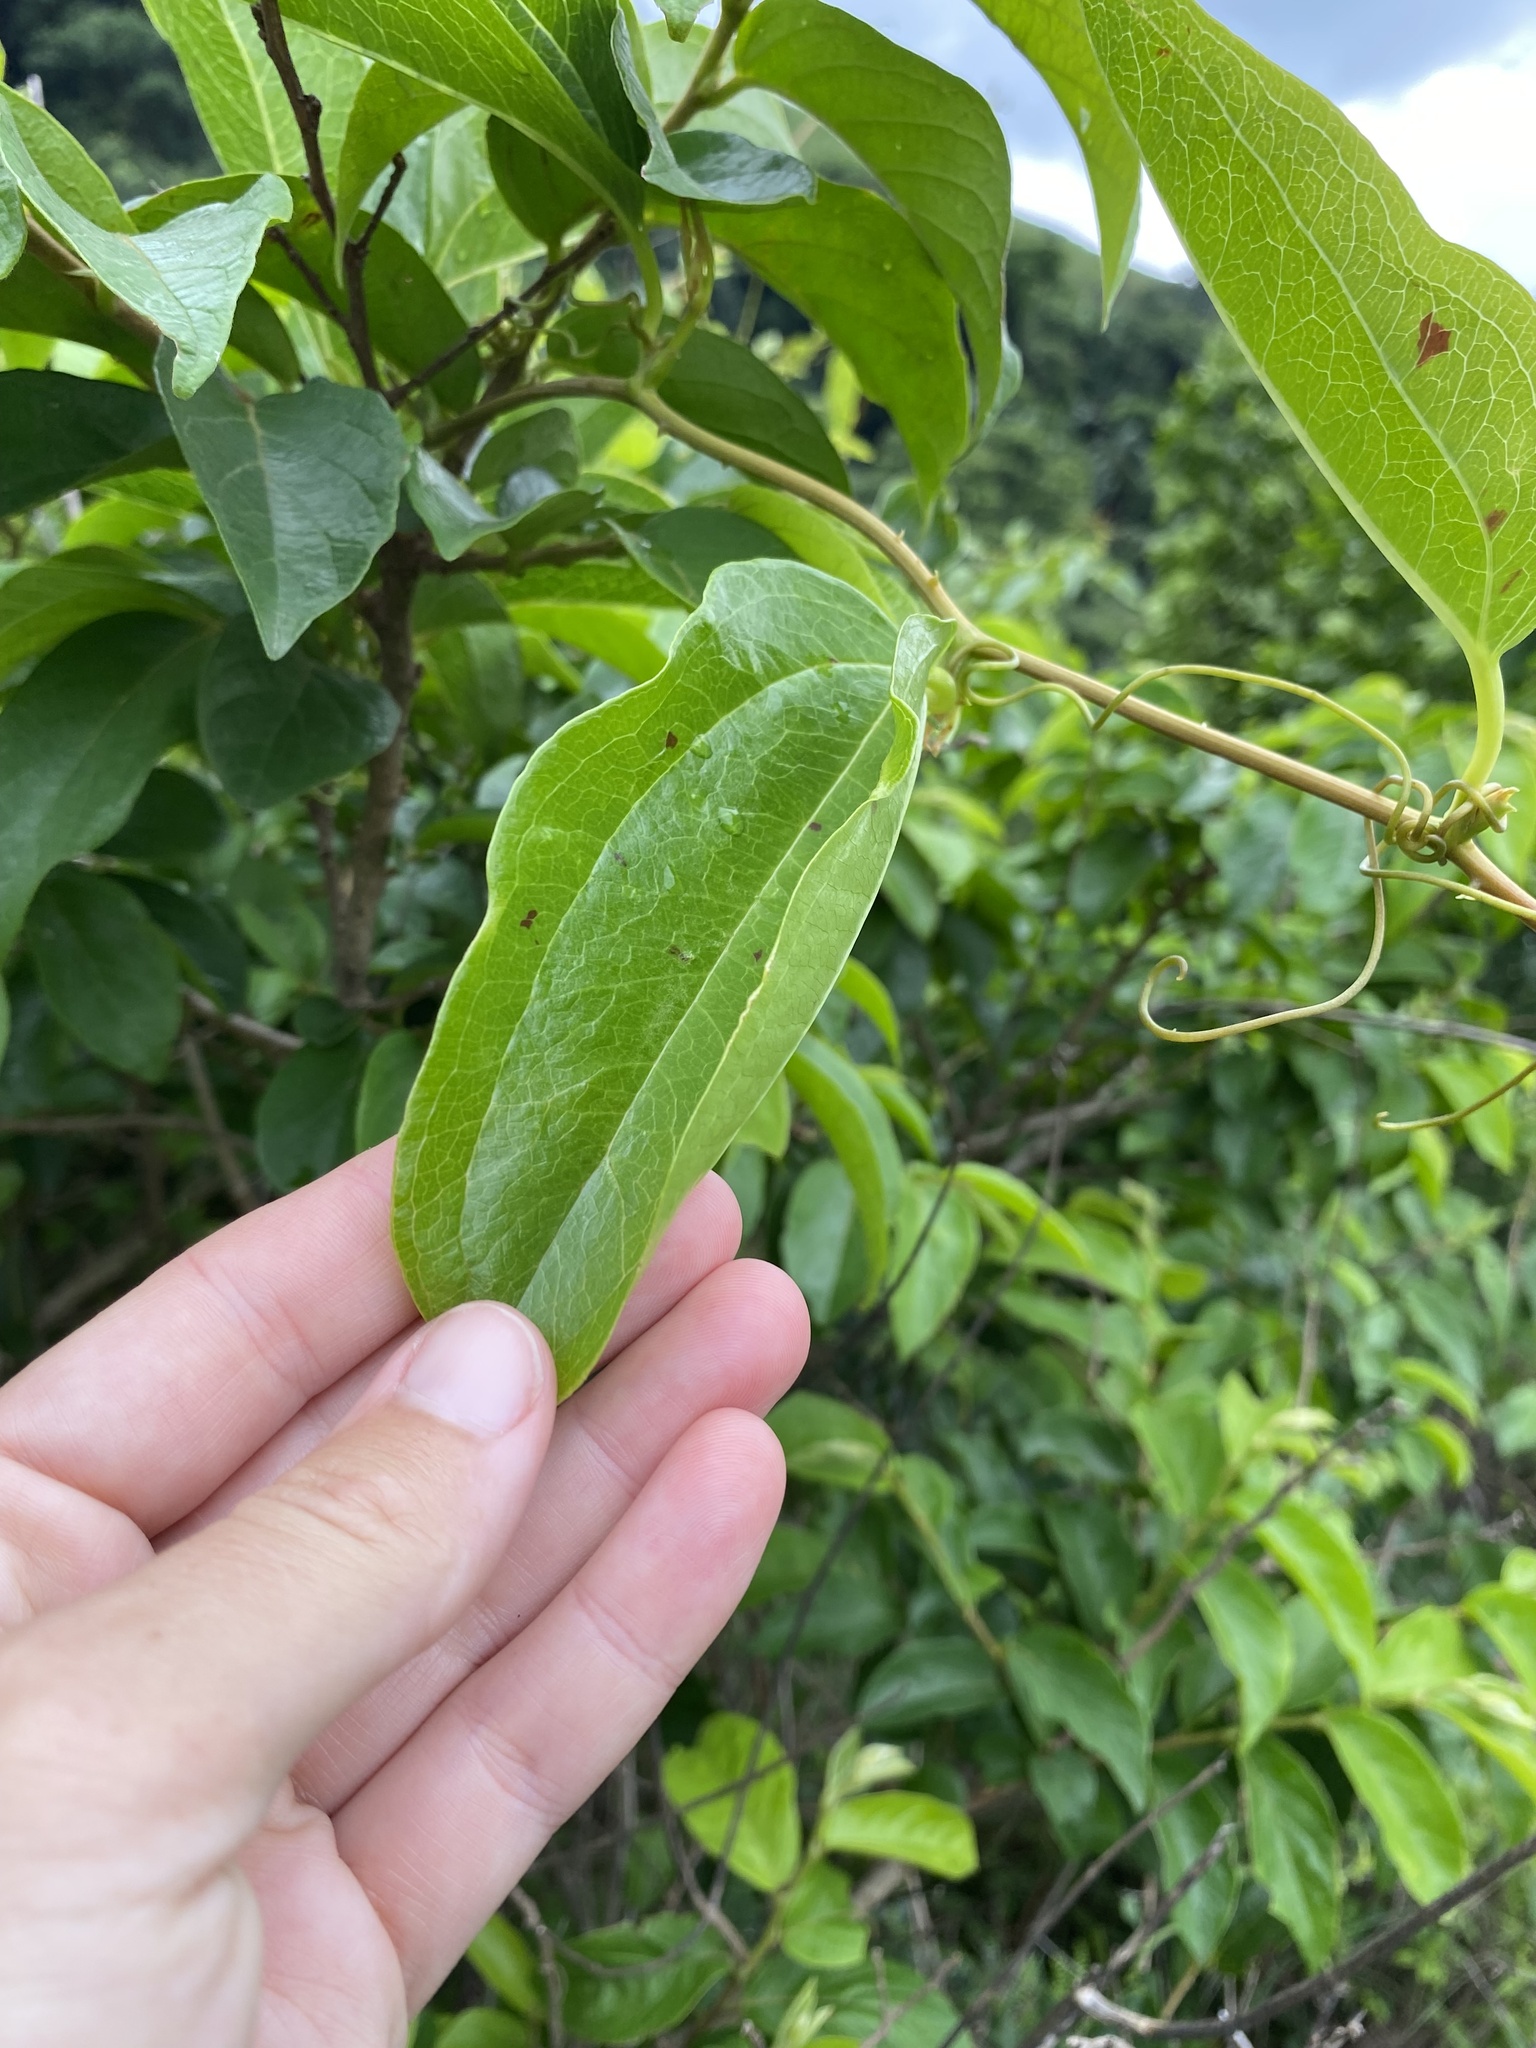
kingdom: Plantae
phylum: Tracheophyta
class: Liliopsida
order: Liliales
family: Smilacaceae
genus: Smilax
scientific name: Smilax anceps
